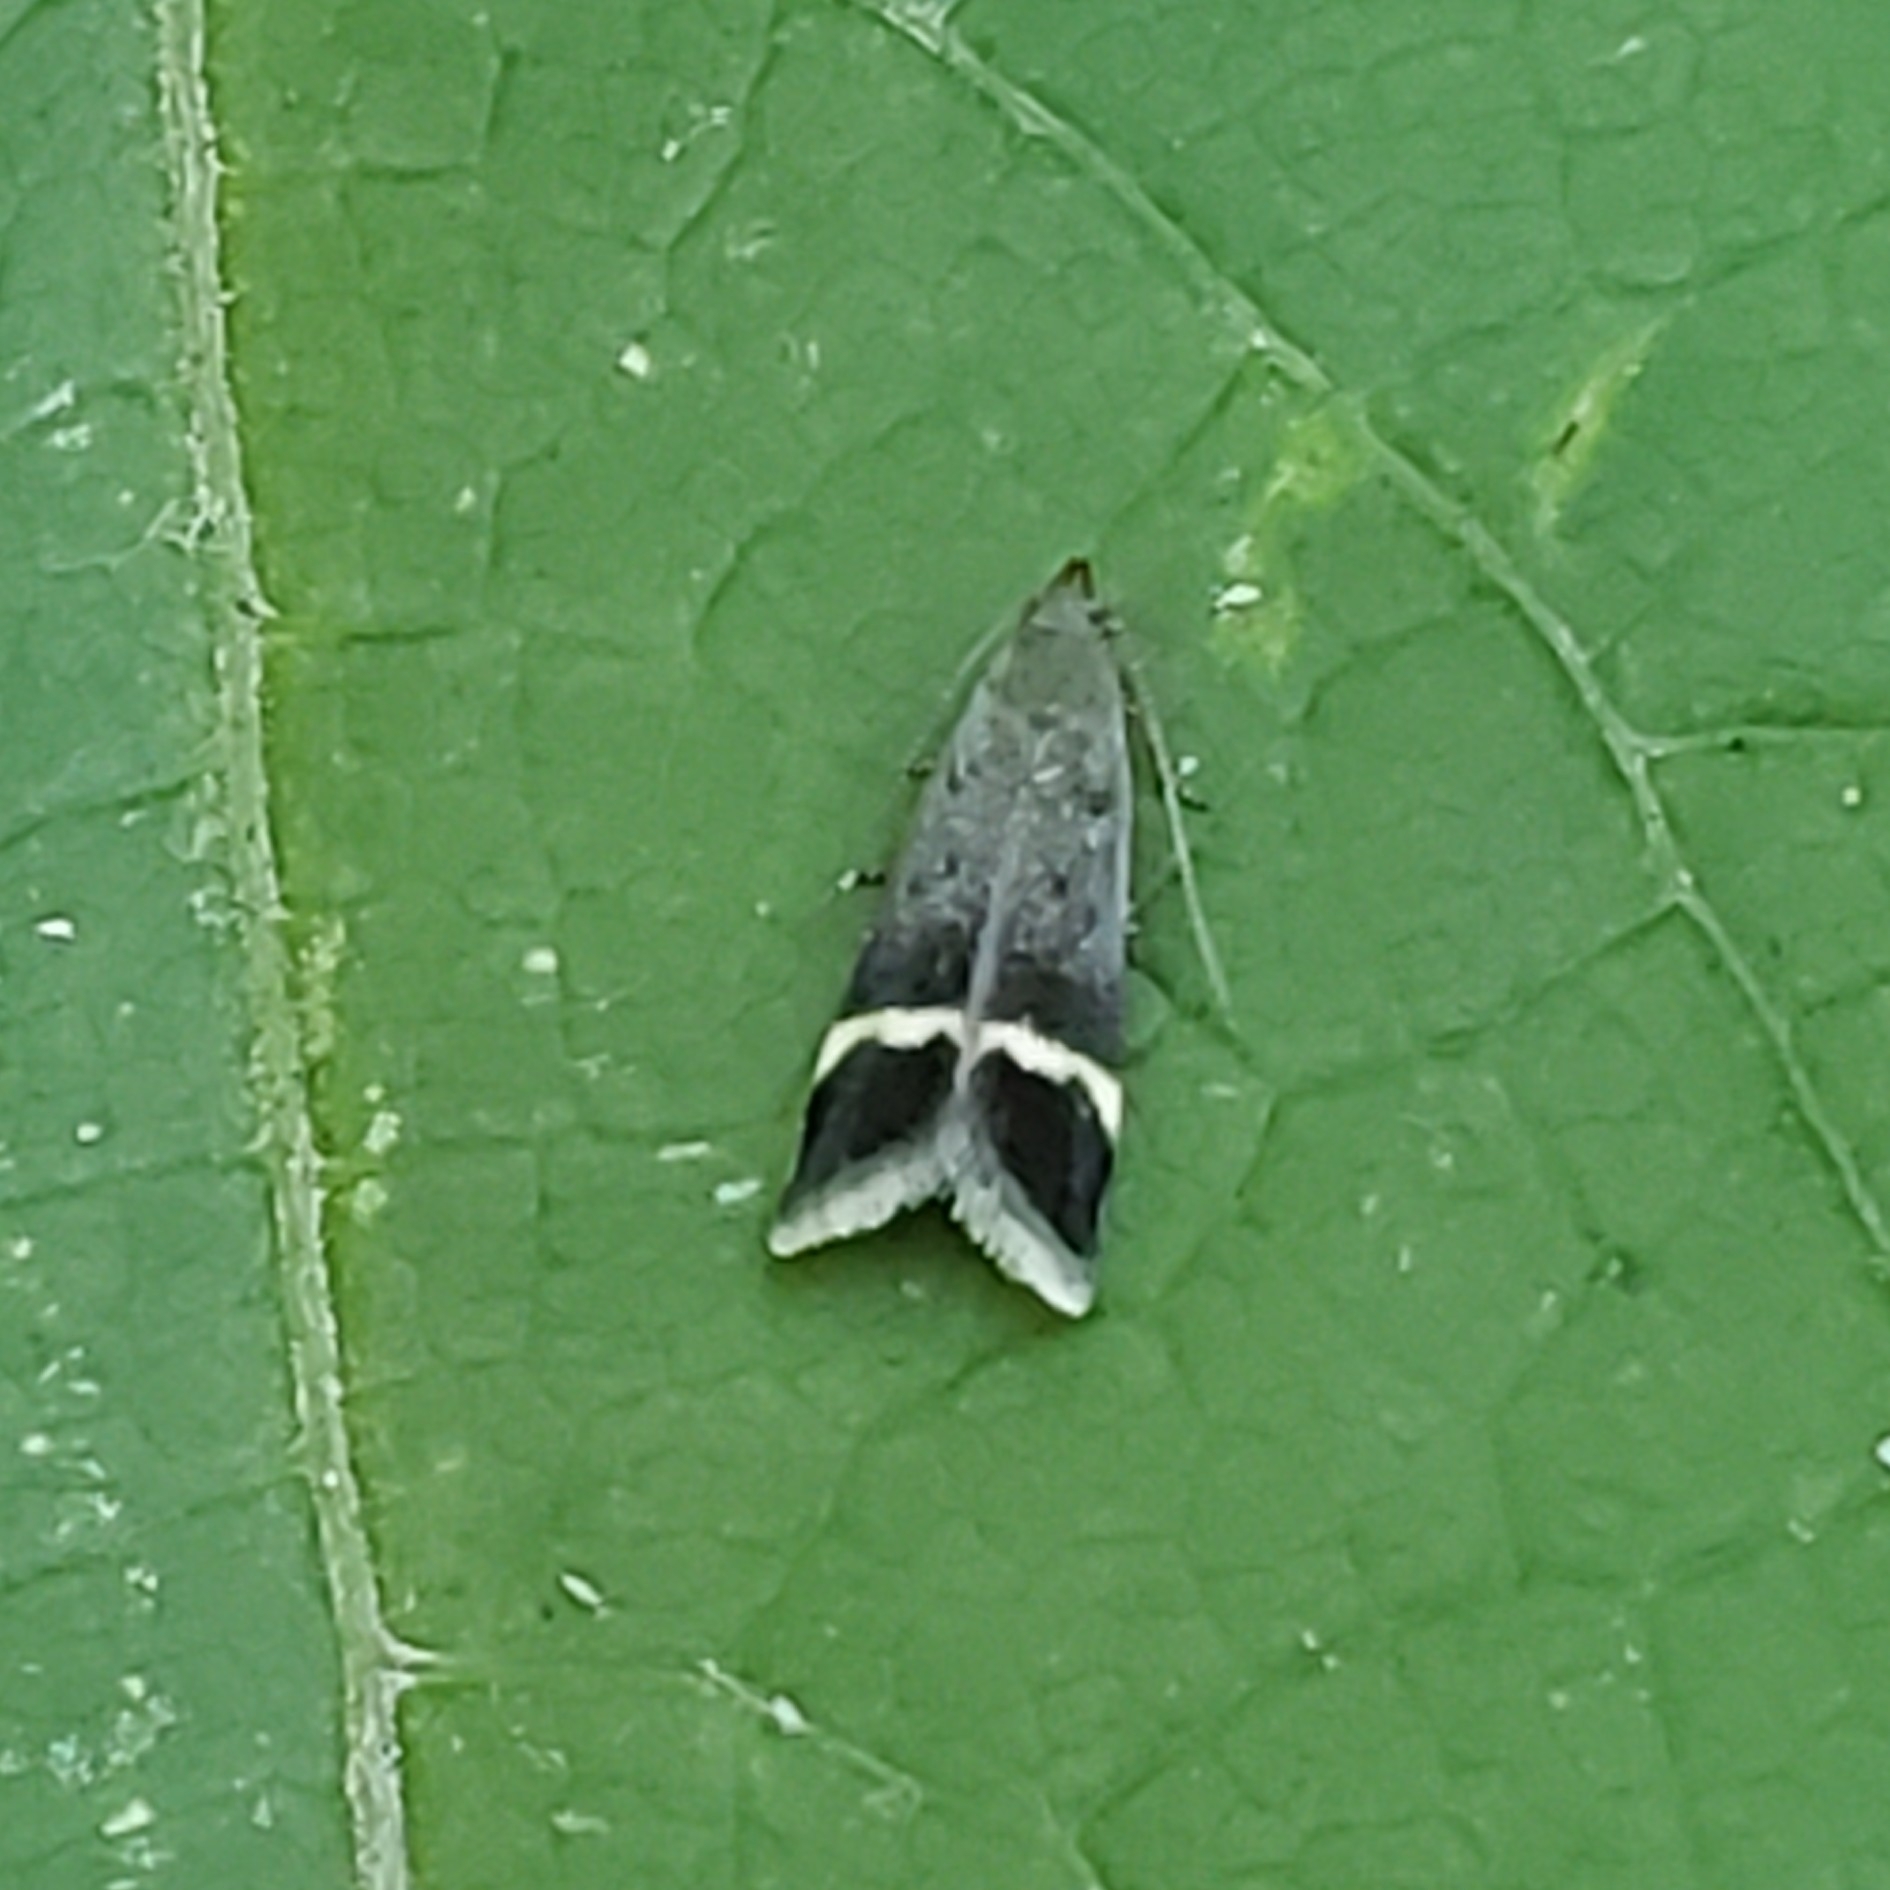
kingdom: Animalia
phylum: Arthropoda
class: Insecta
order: Lepidoptera
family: Gelechiidae
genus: Anacampsis
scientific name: Anacampsis agrimoniella
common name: Agrimony anacampsis moth
